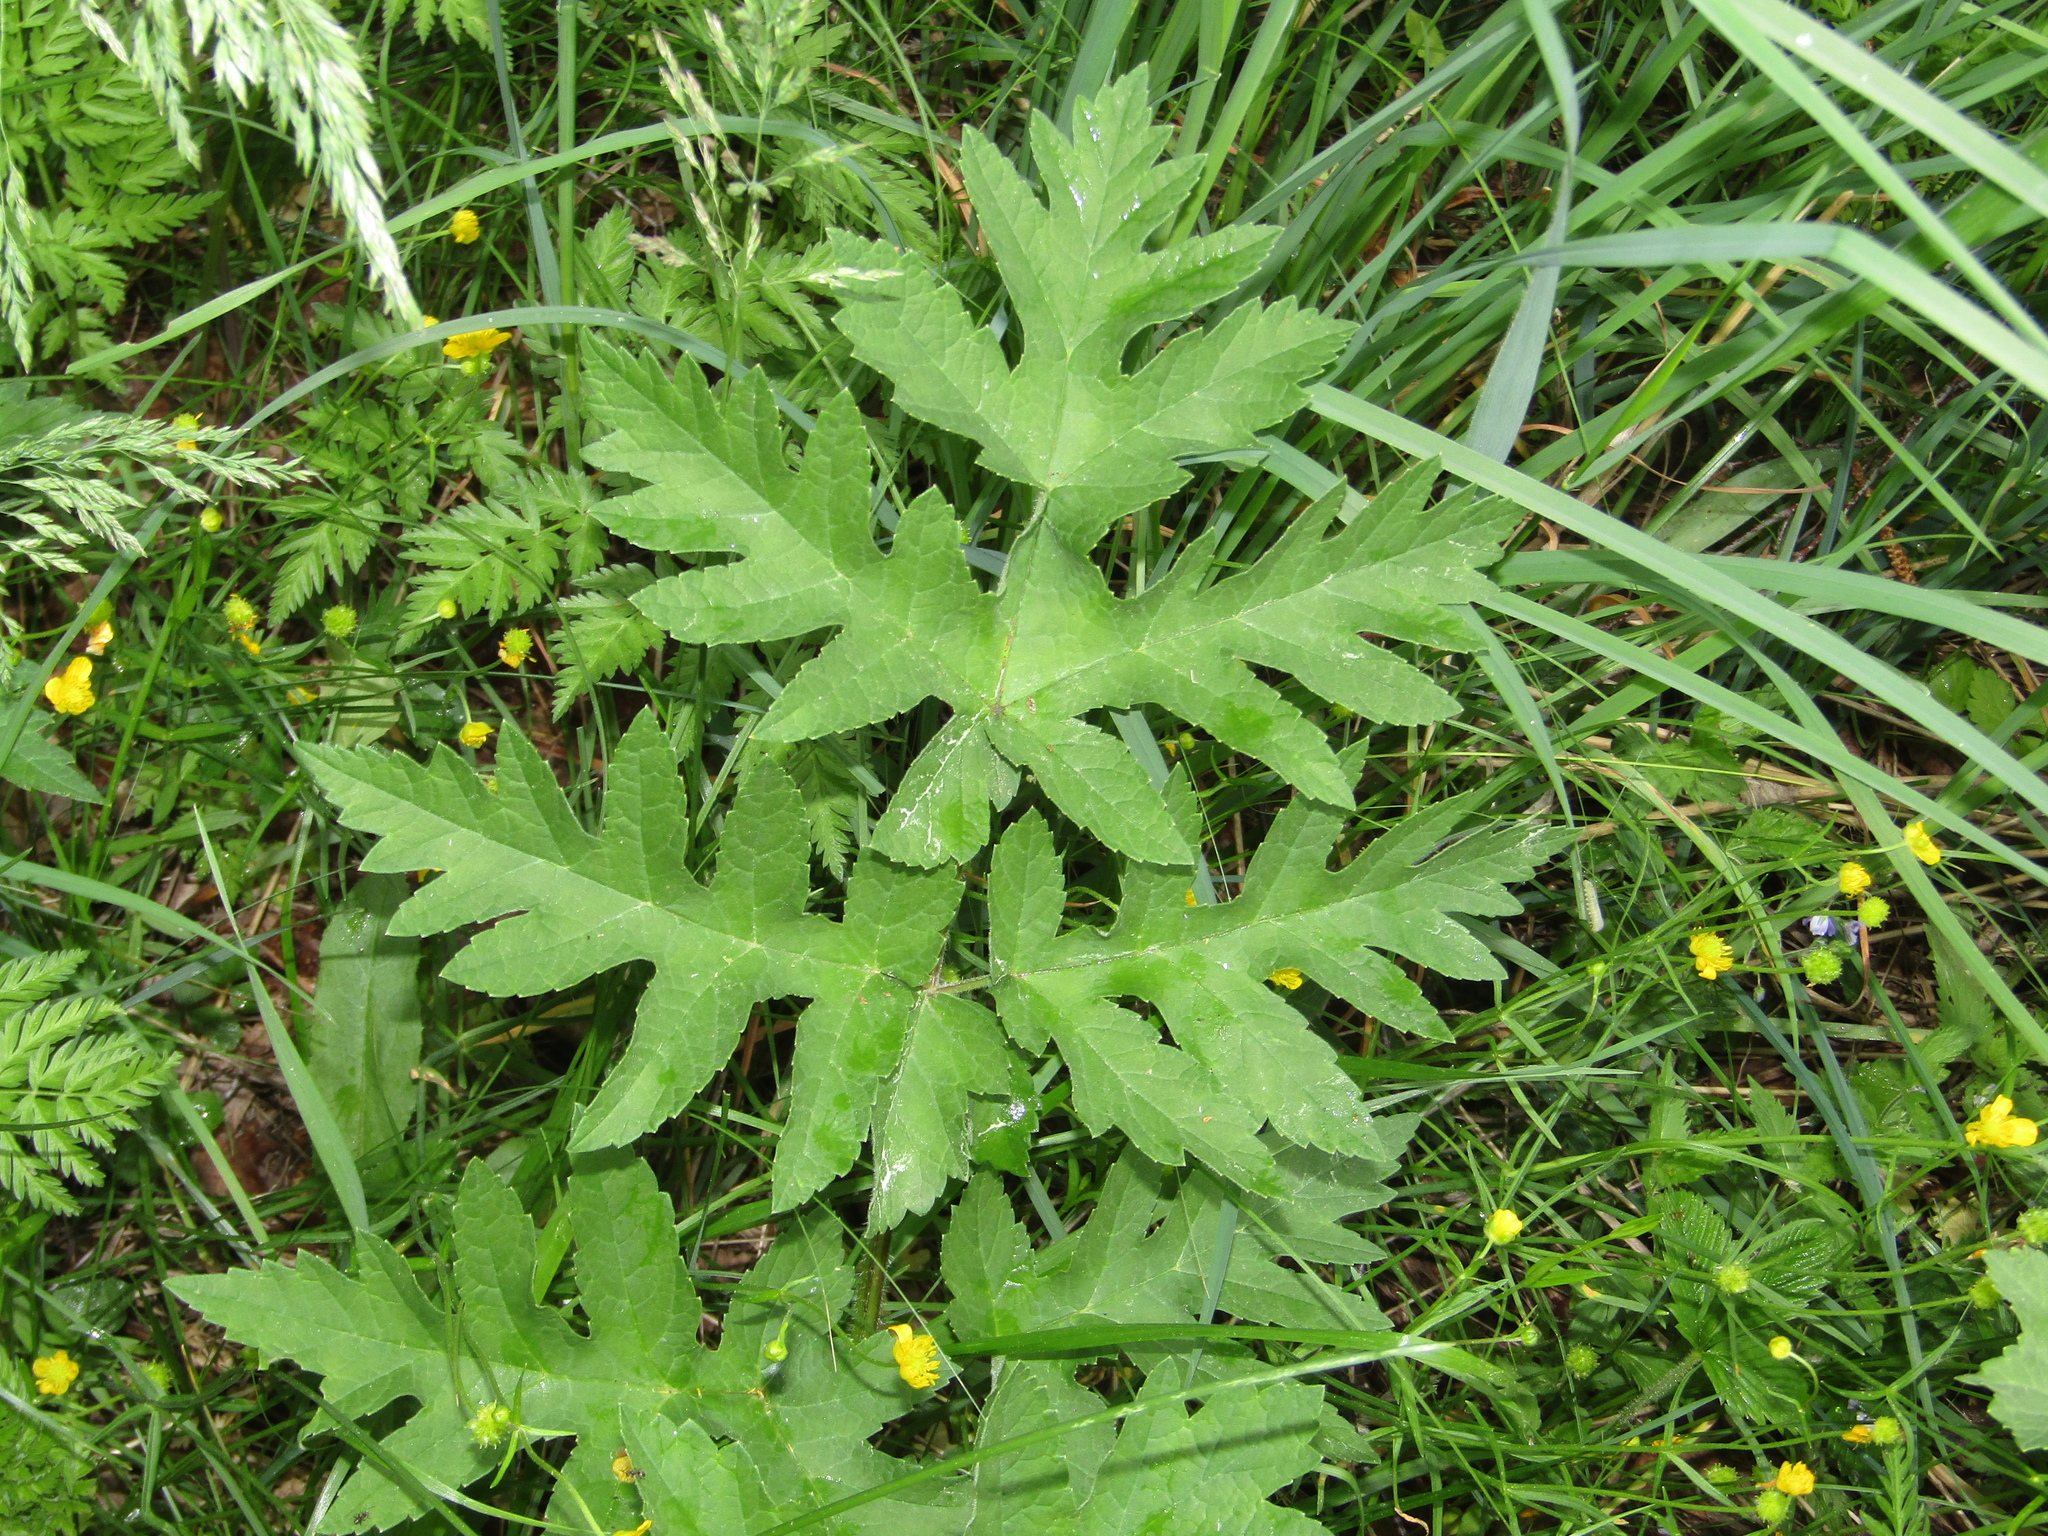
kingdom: Plantae
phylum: Tracheophyta
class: Magnoliopsida
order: Apiales
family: Apiaceae
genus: Heracleum
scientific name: Heracleum sphondylium
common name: Hogweed
